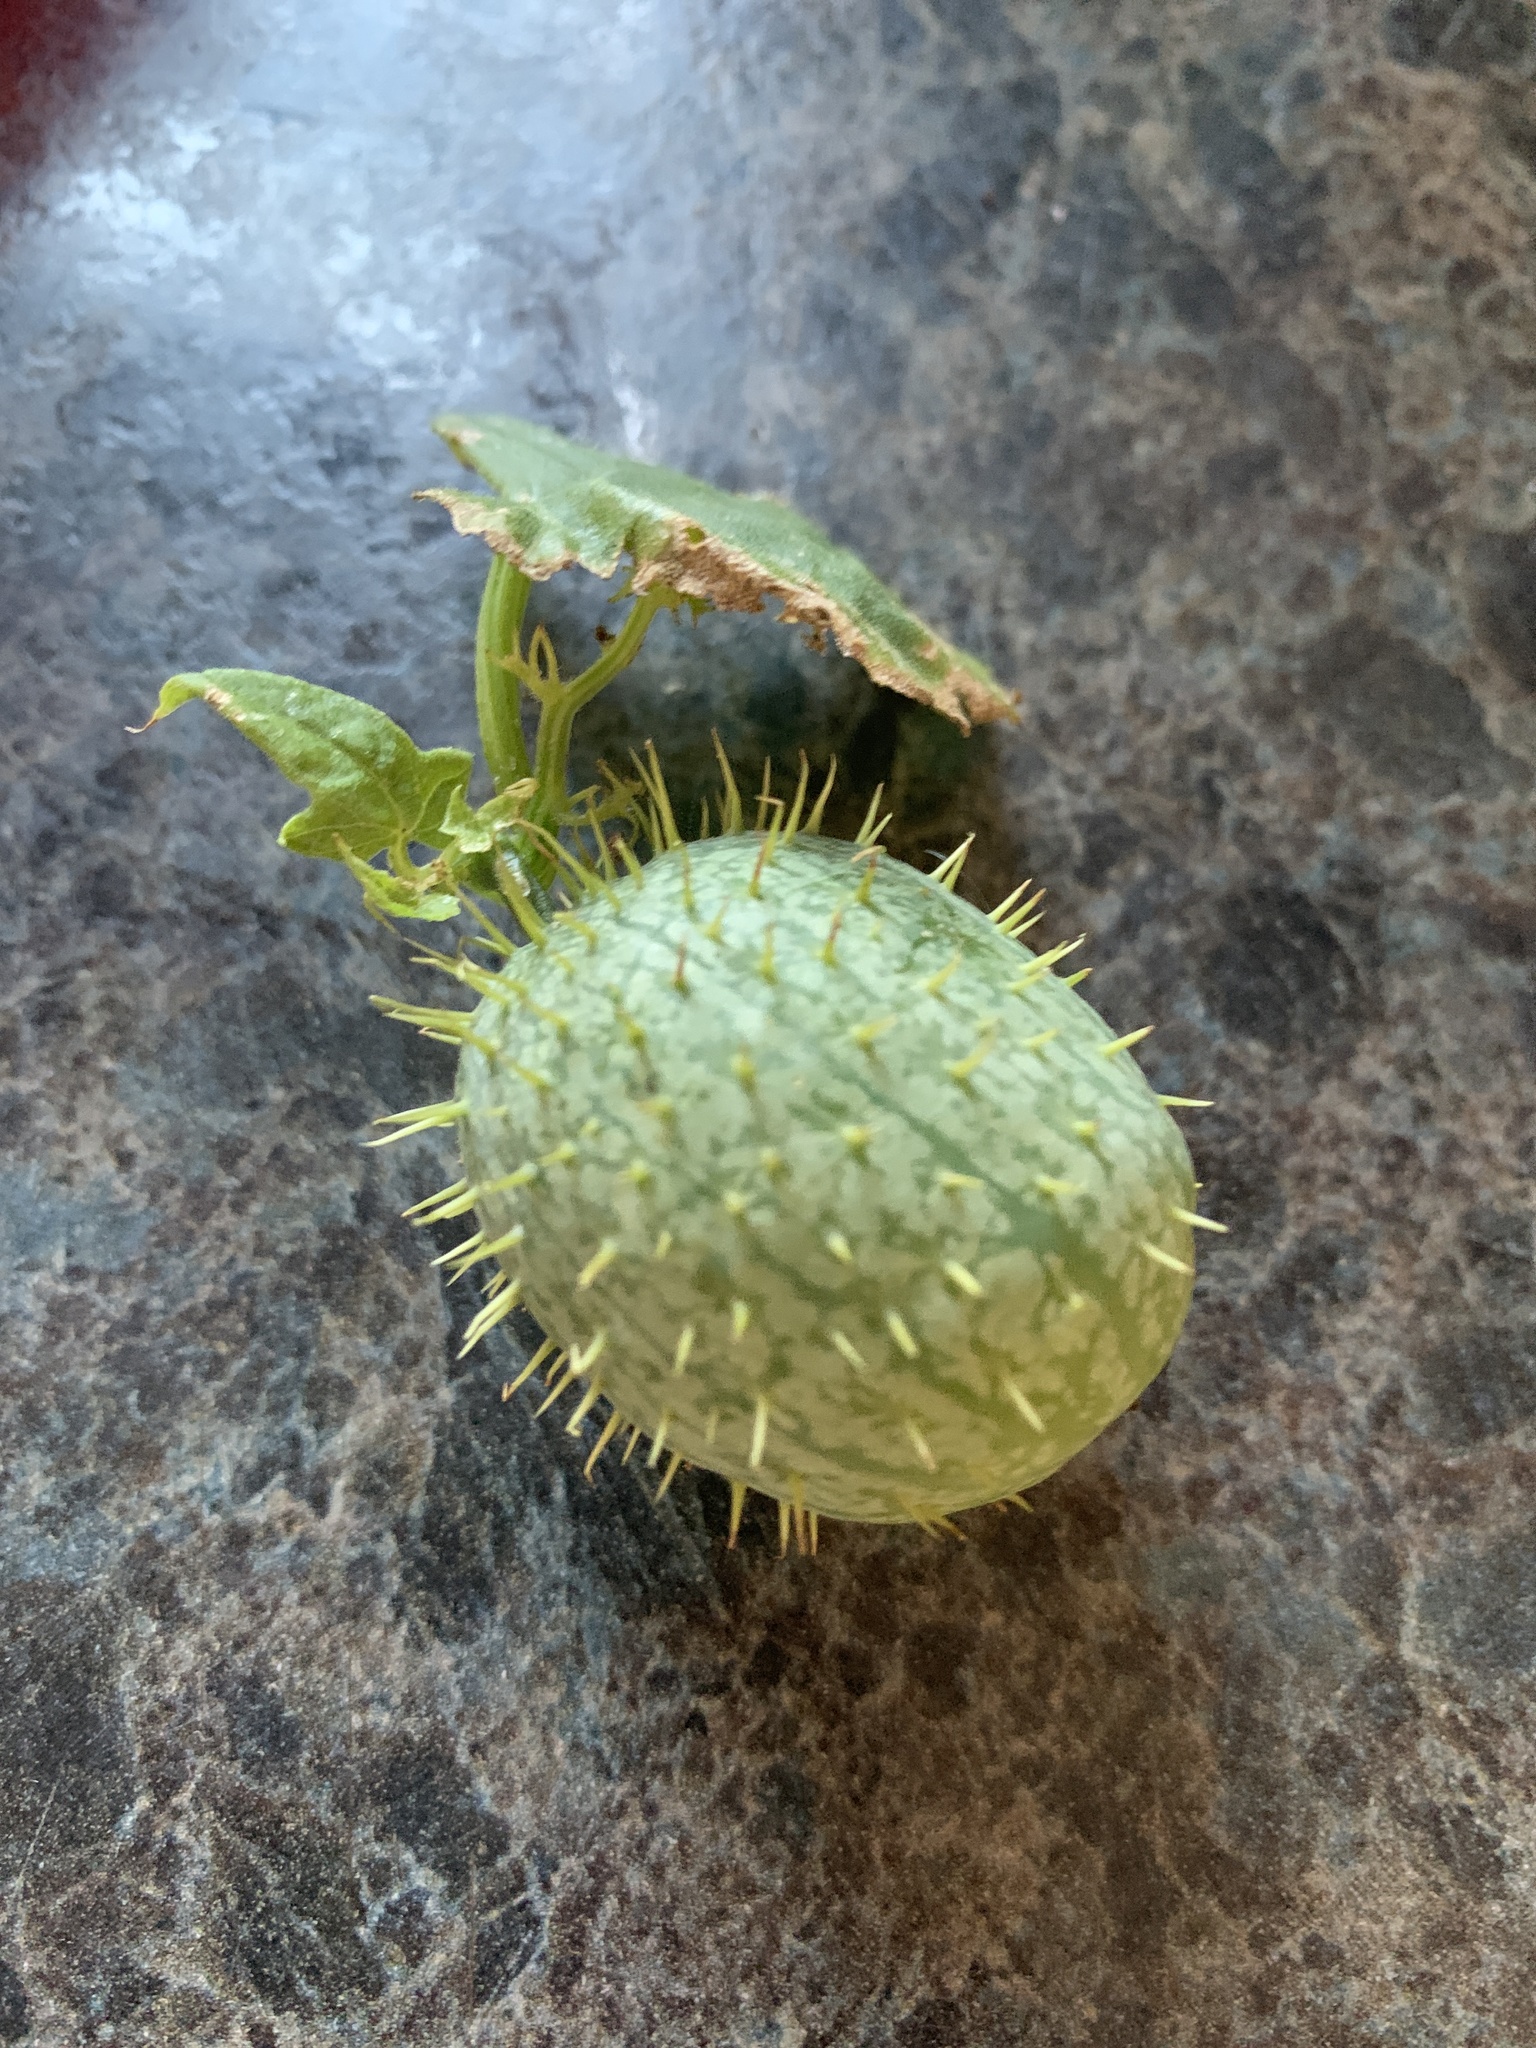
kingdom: Plantae
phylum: Tracheophyta
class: Magnoliopsida
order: Cucurbitales
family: Cucurbitaceae
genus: Echinocystis
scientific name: Echinocystis lobata
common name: Wild cucumber
